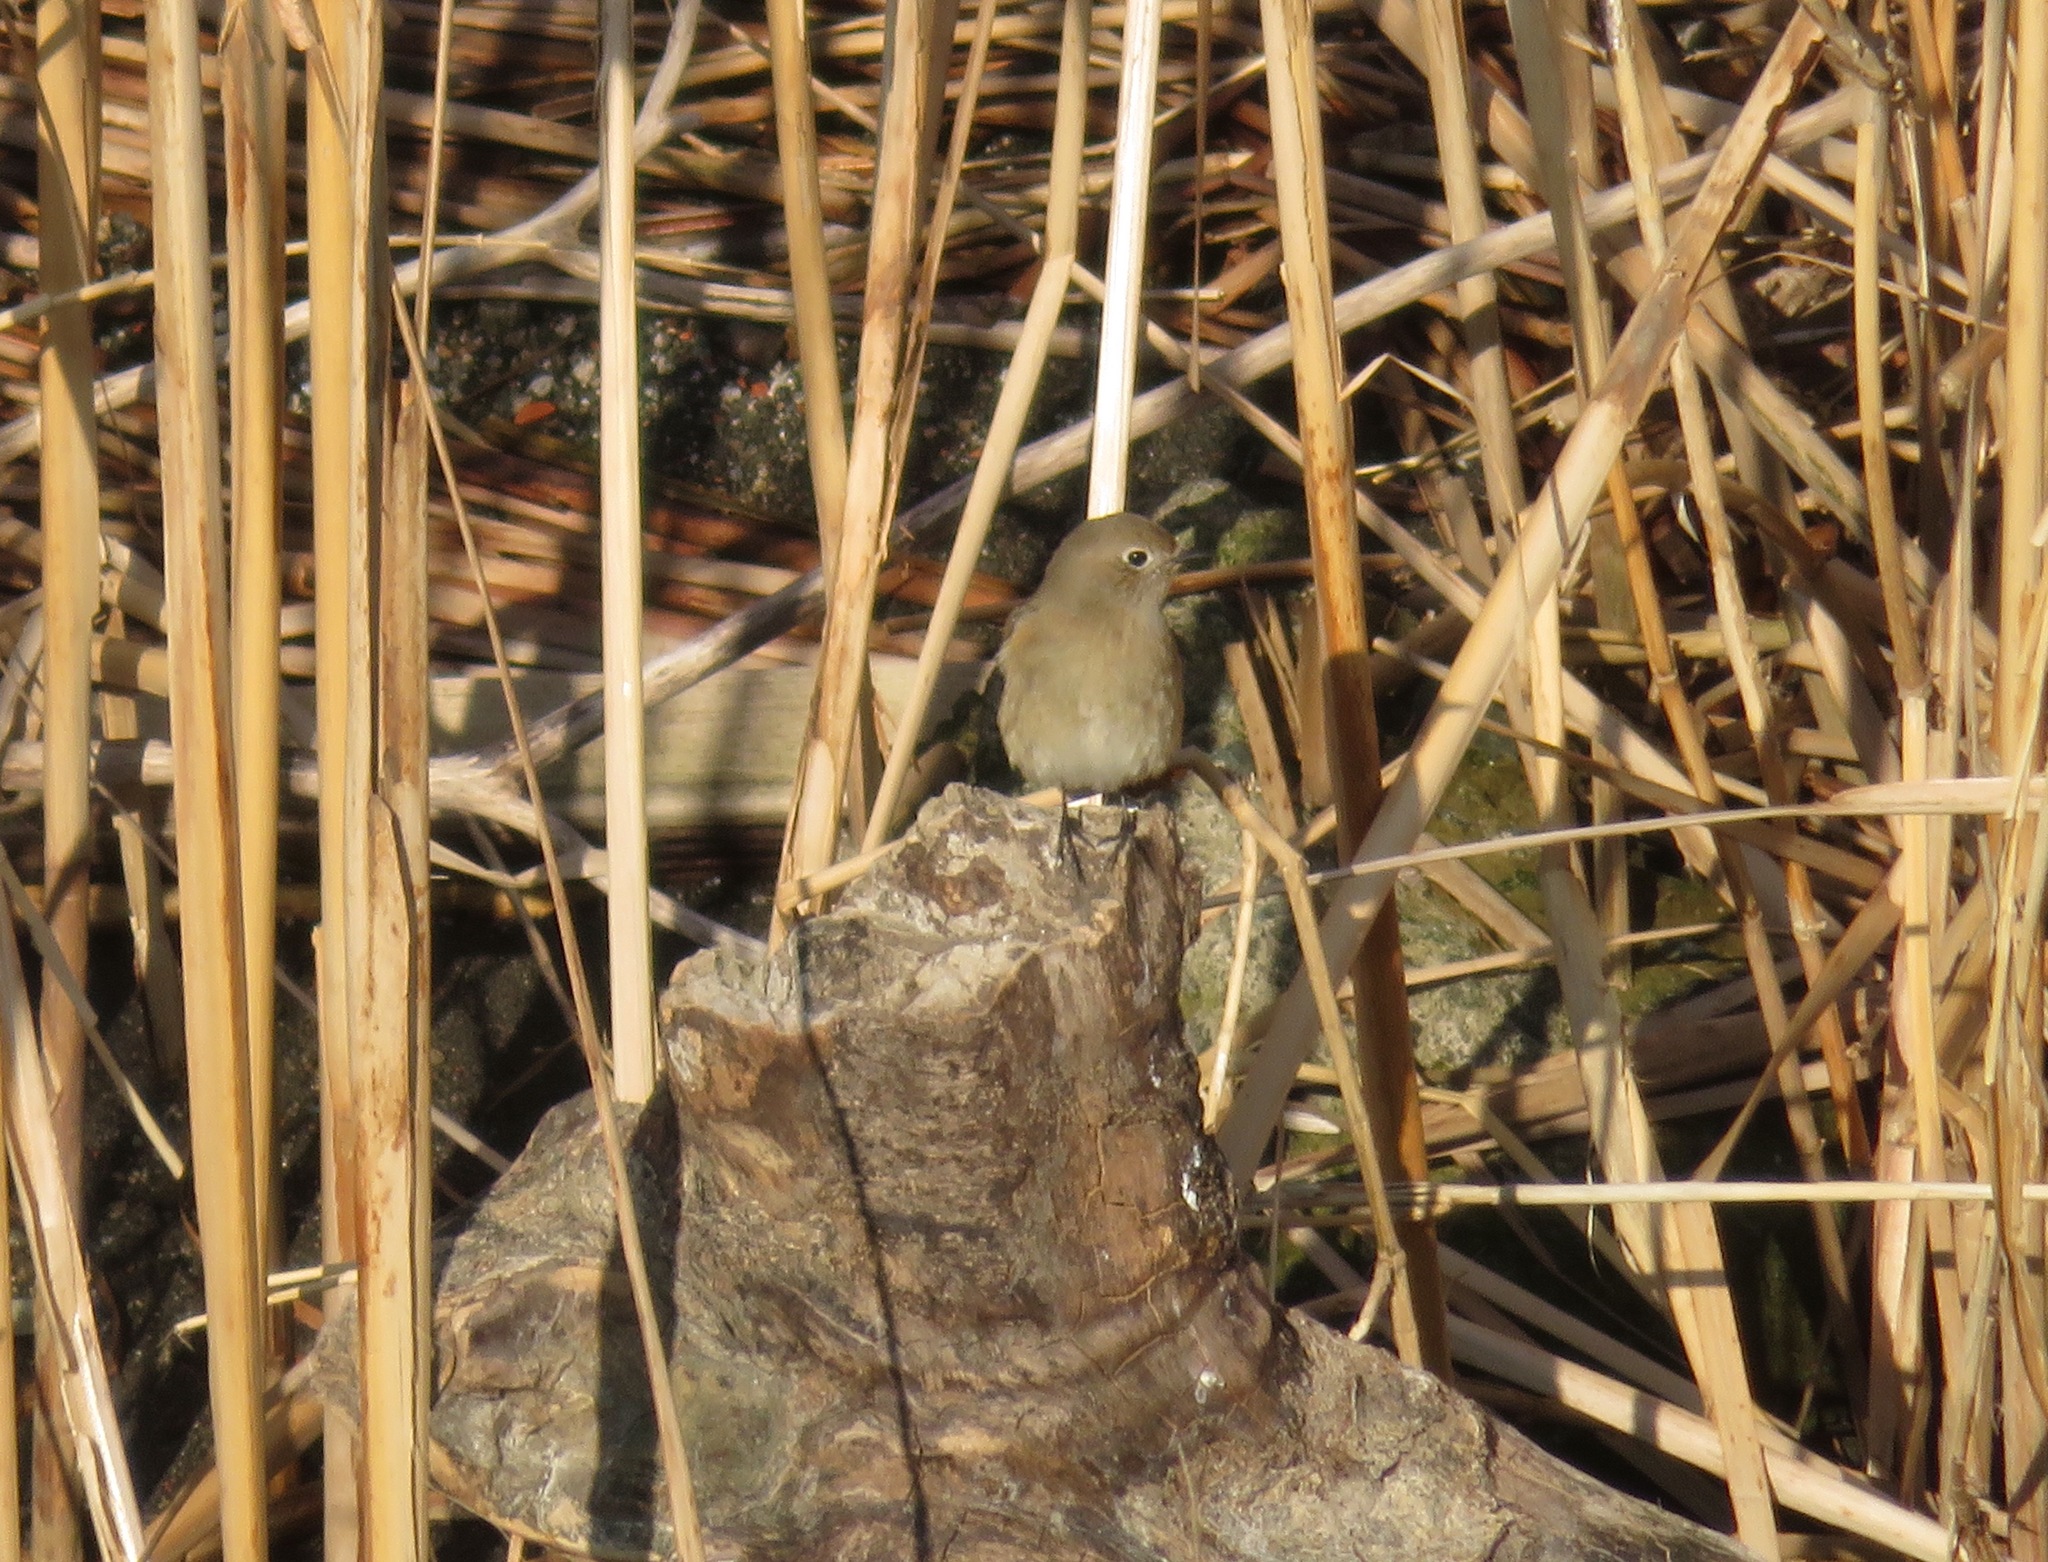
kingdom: Animalia
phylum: Chordata
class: Aves
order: Passeriformes
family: Muscicapidae
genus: Phoenicurus
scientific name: Phoenicurus auroreus
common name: Daurian redstart
